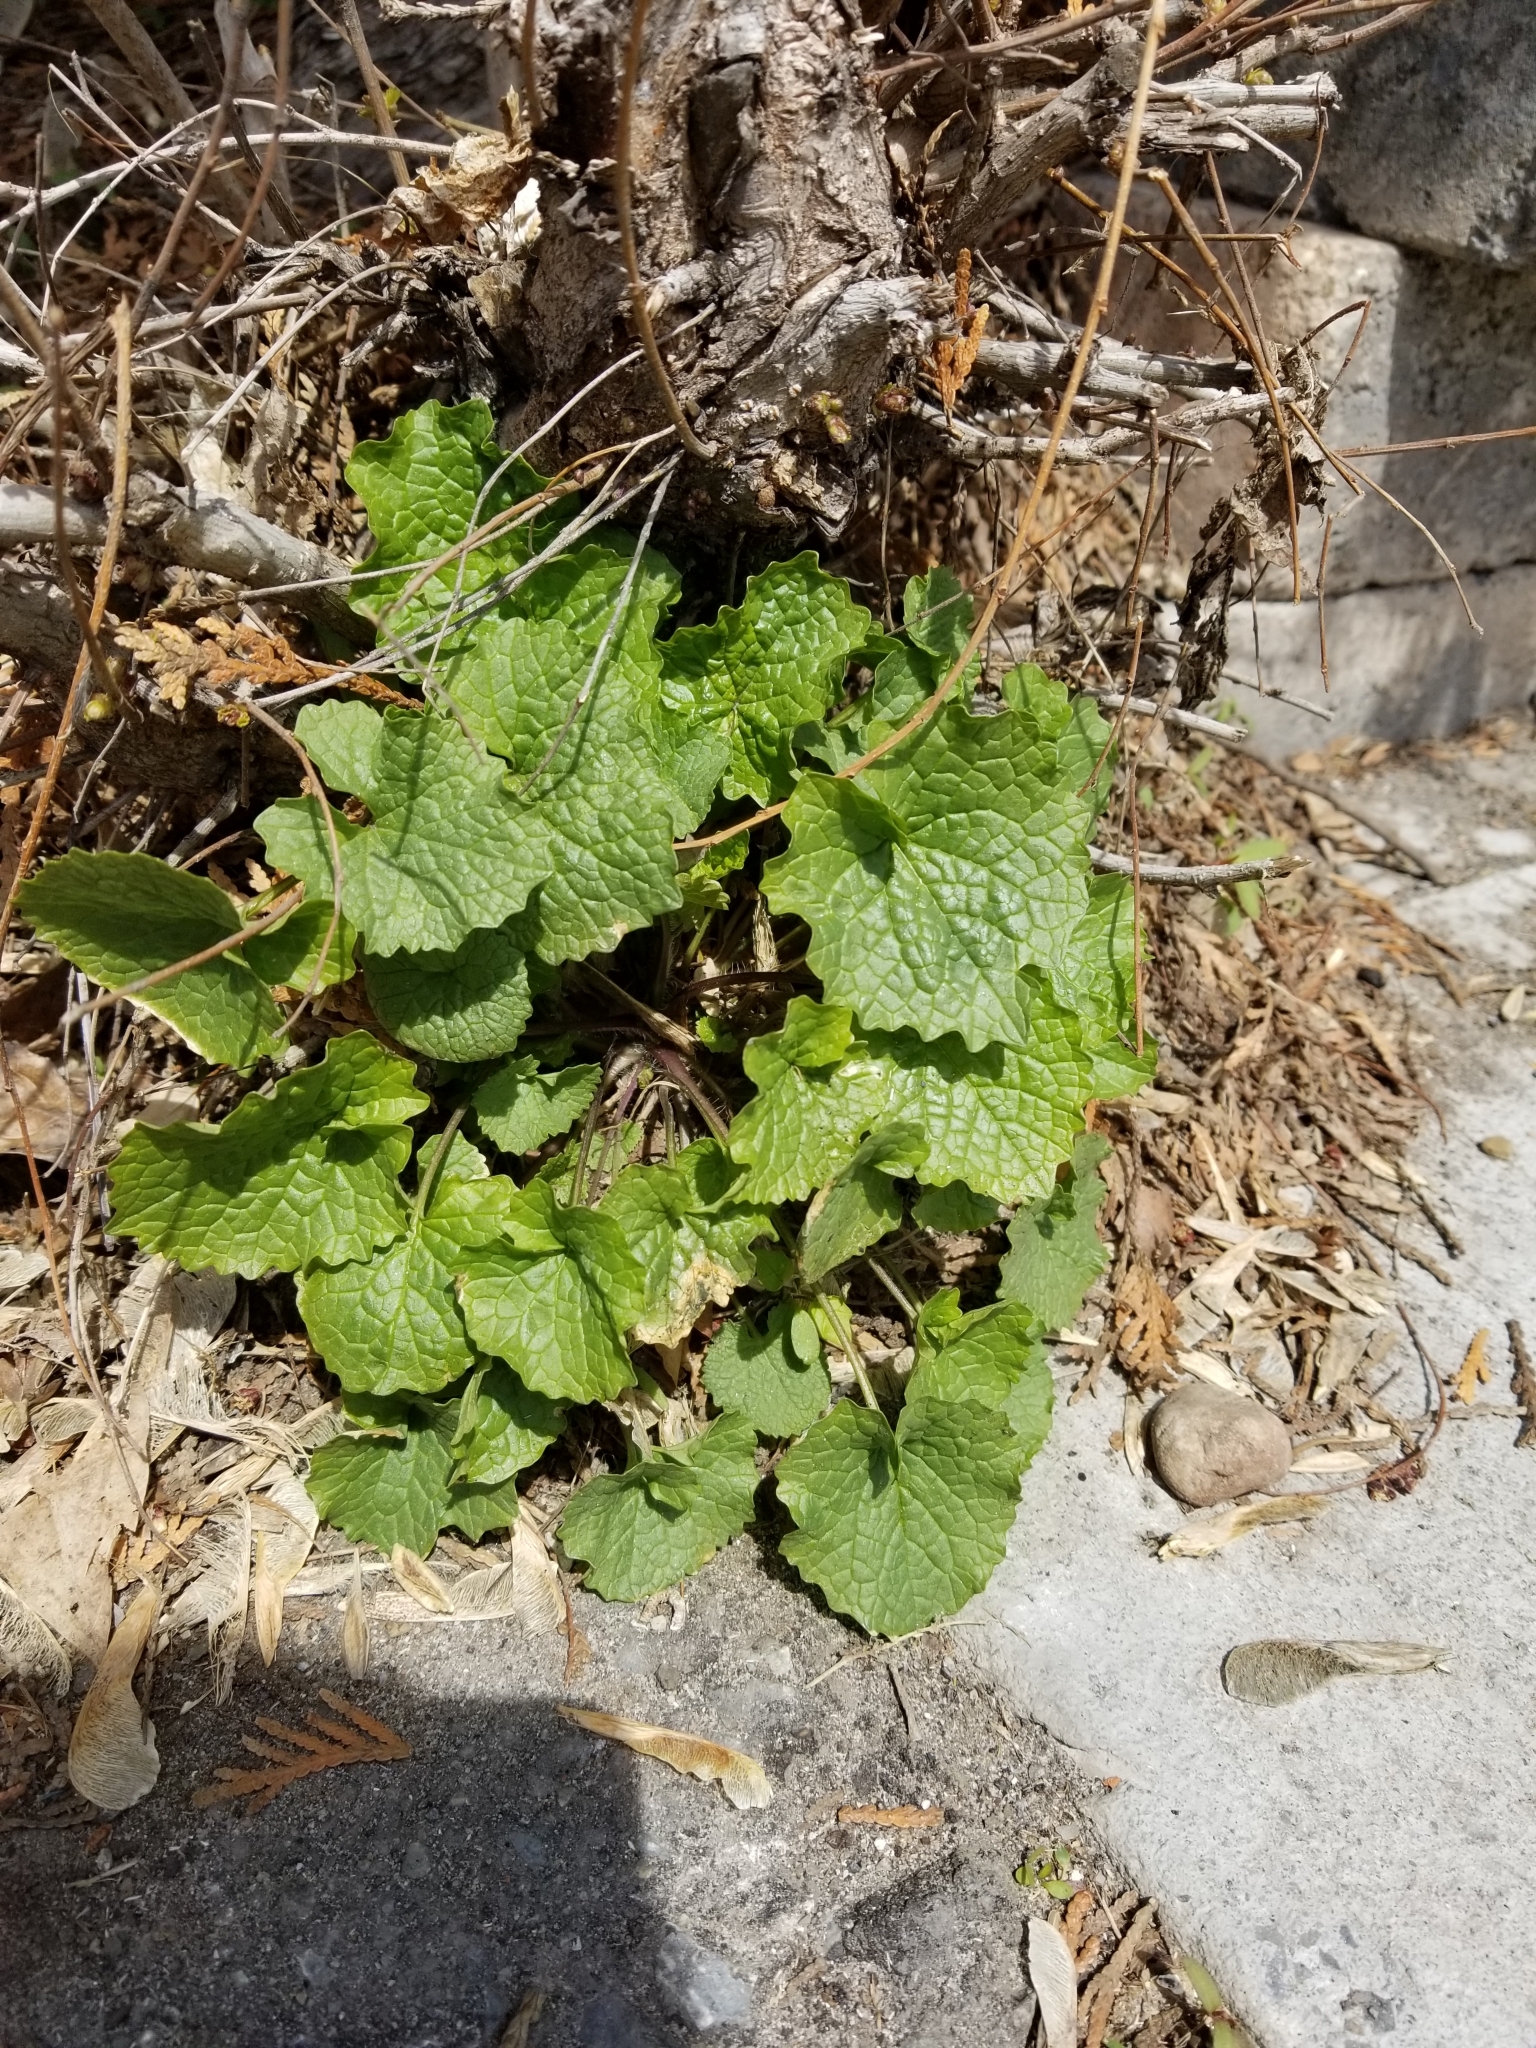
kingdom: Plantae
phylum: Tracheophyta
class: Magnoliopsida
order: Brassicales
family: Brassicaceae
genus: Alliaria
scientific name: Alliaria petiolata
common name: Garlic mustard
